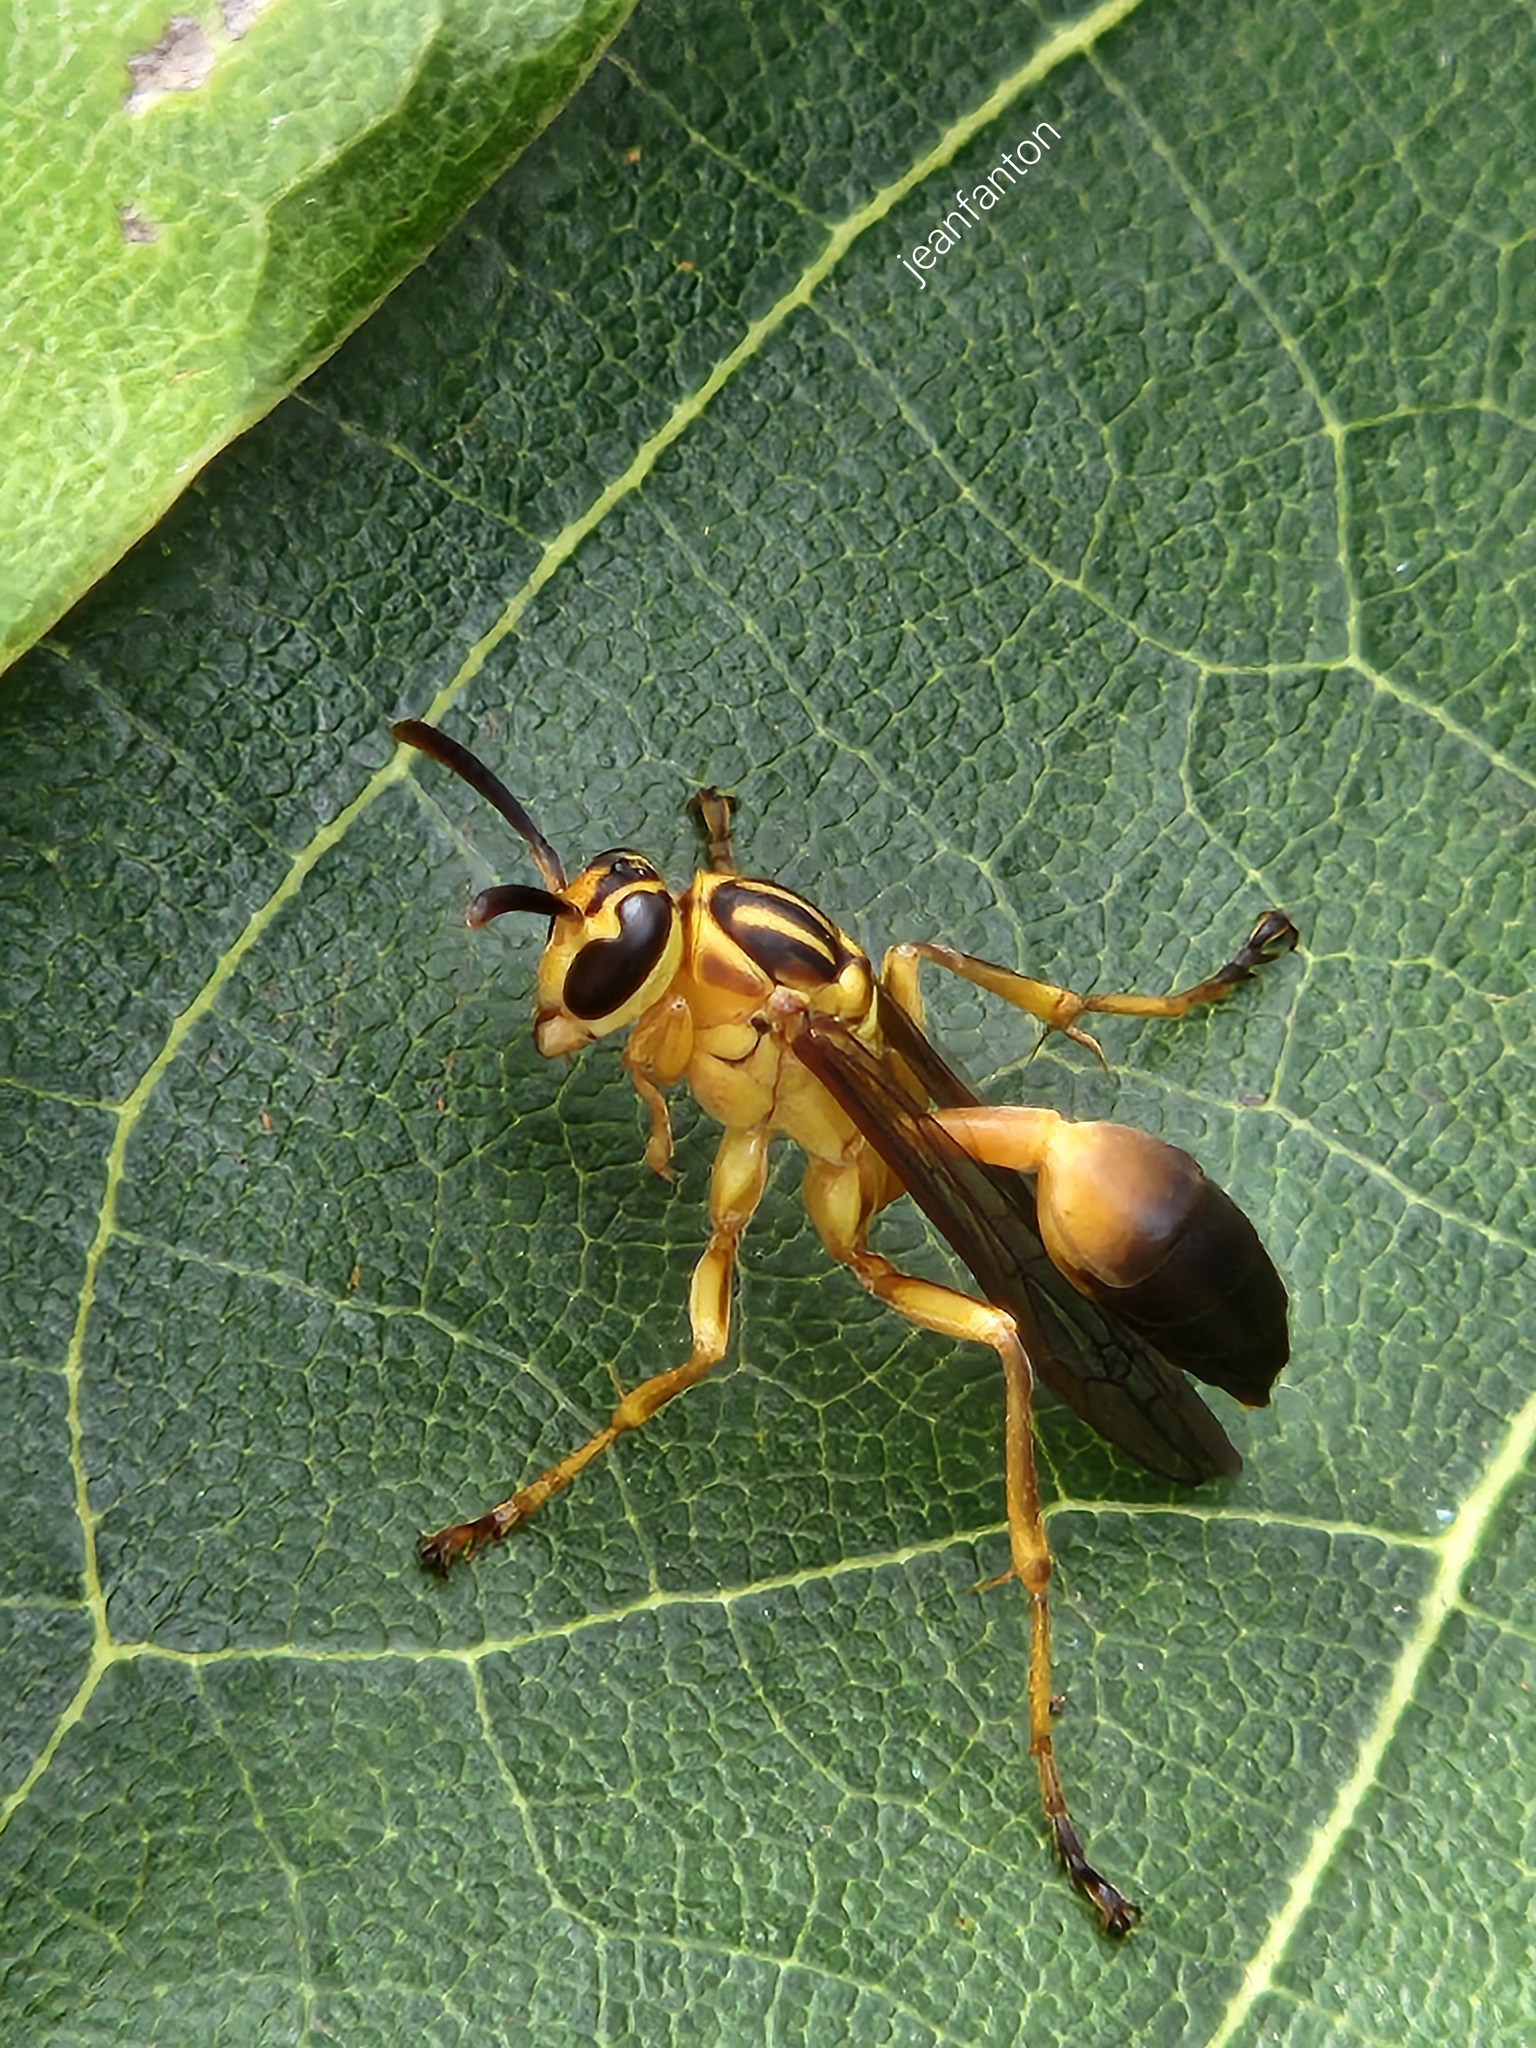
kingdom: Animalia
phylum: Arthropoda
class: Insecta
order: Hymenoptera
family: Vespidae
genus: Mischocyttarus
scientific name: Mischocyttarus cerberus
